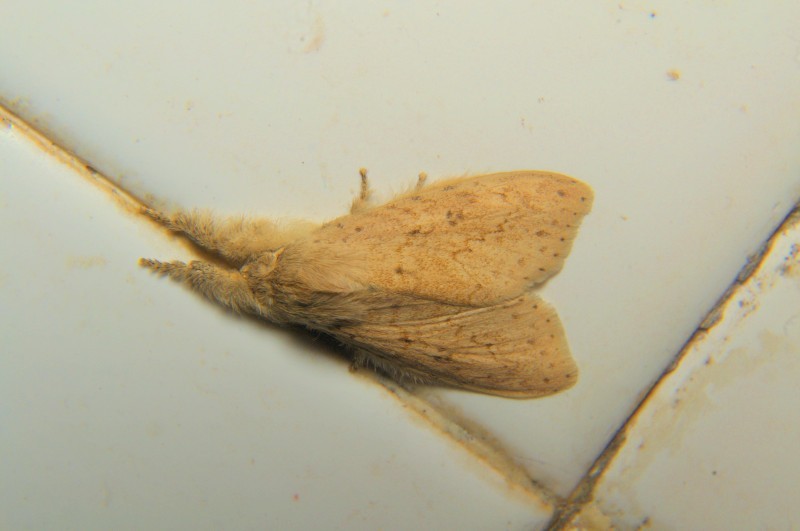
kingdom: Animalia
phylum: Arthropoda
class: Insecta
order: Lepidoptera
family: Erebidae
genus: Calliteara
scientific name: Calliteara angulata
